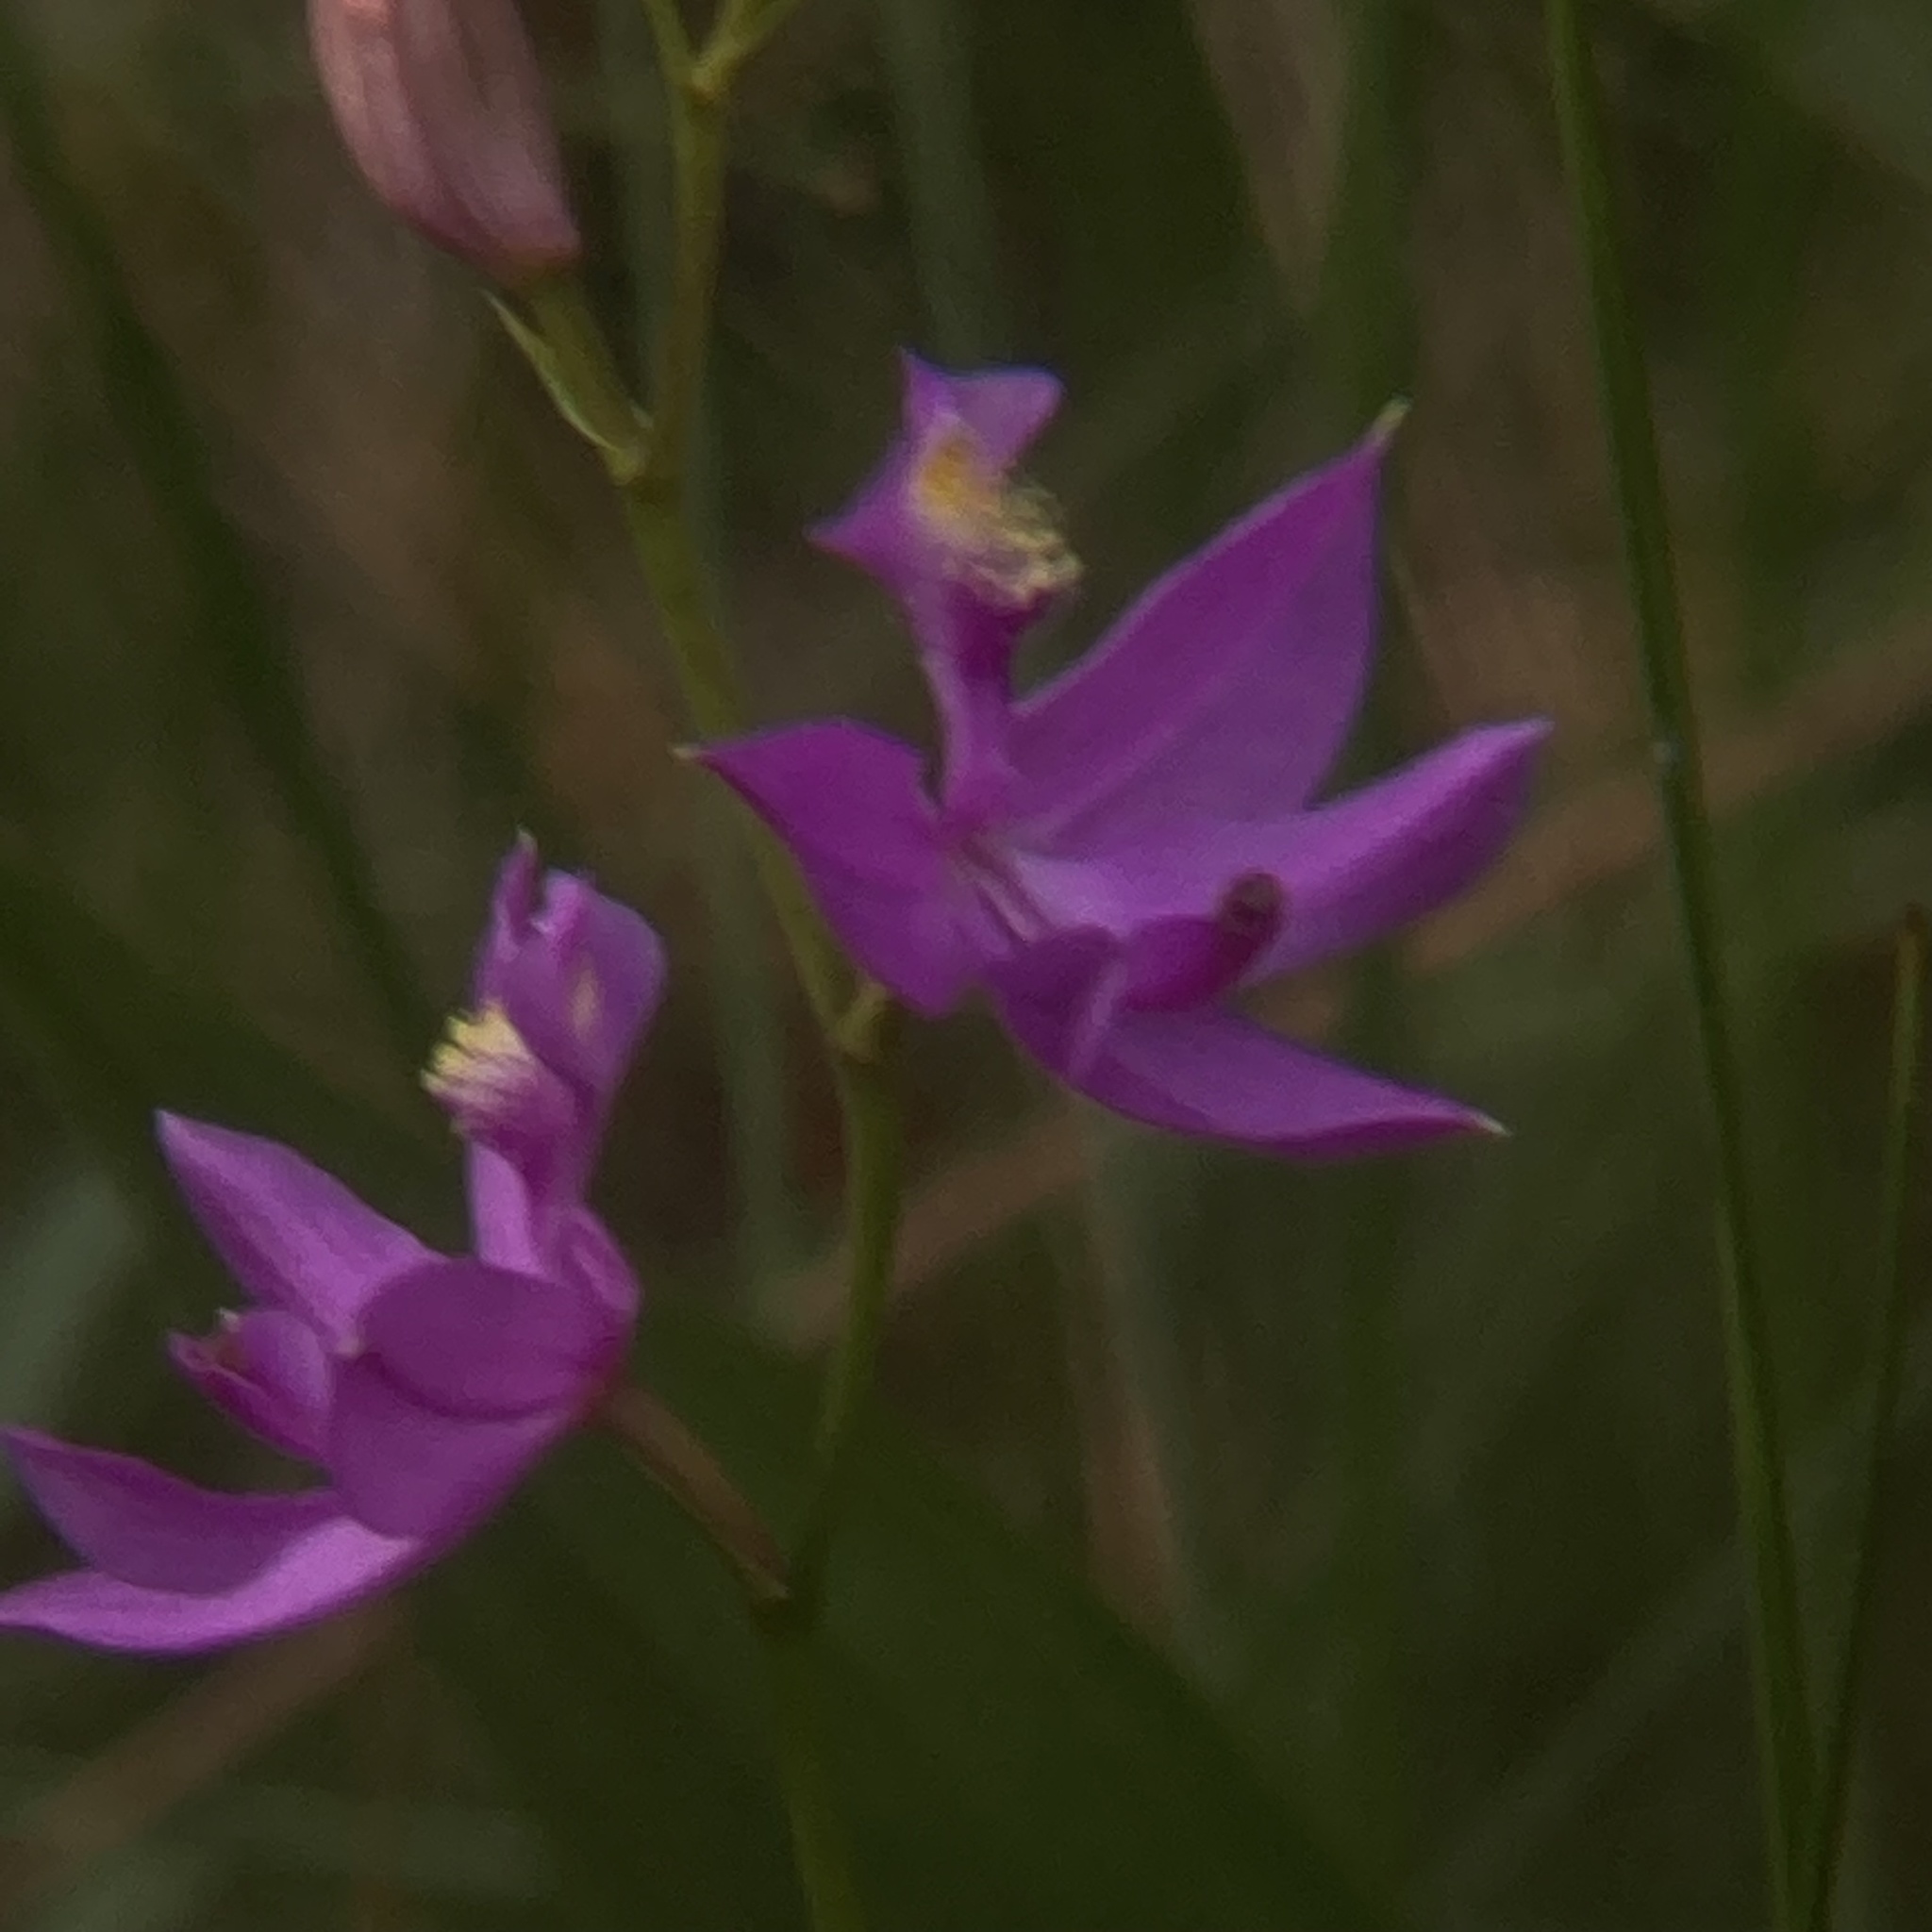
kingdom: Plantae
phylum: Tracheophyta
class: Liliopsida
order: Asparagales
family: Orchidaceae
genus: Calopogon
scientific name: Calopogon tuberosus
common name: Grass-pink
